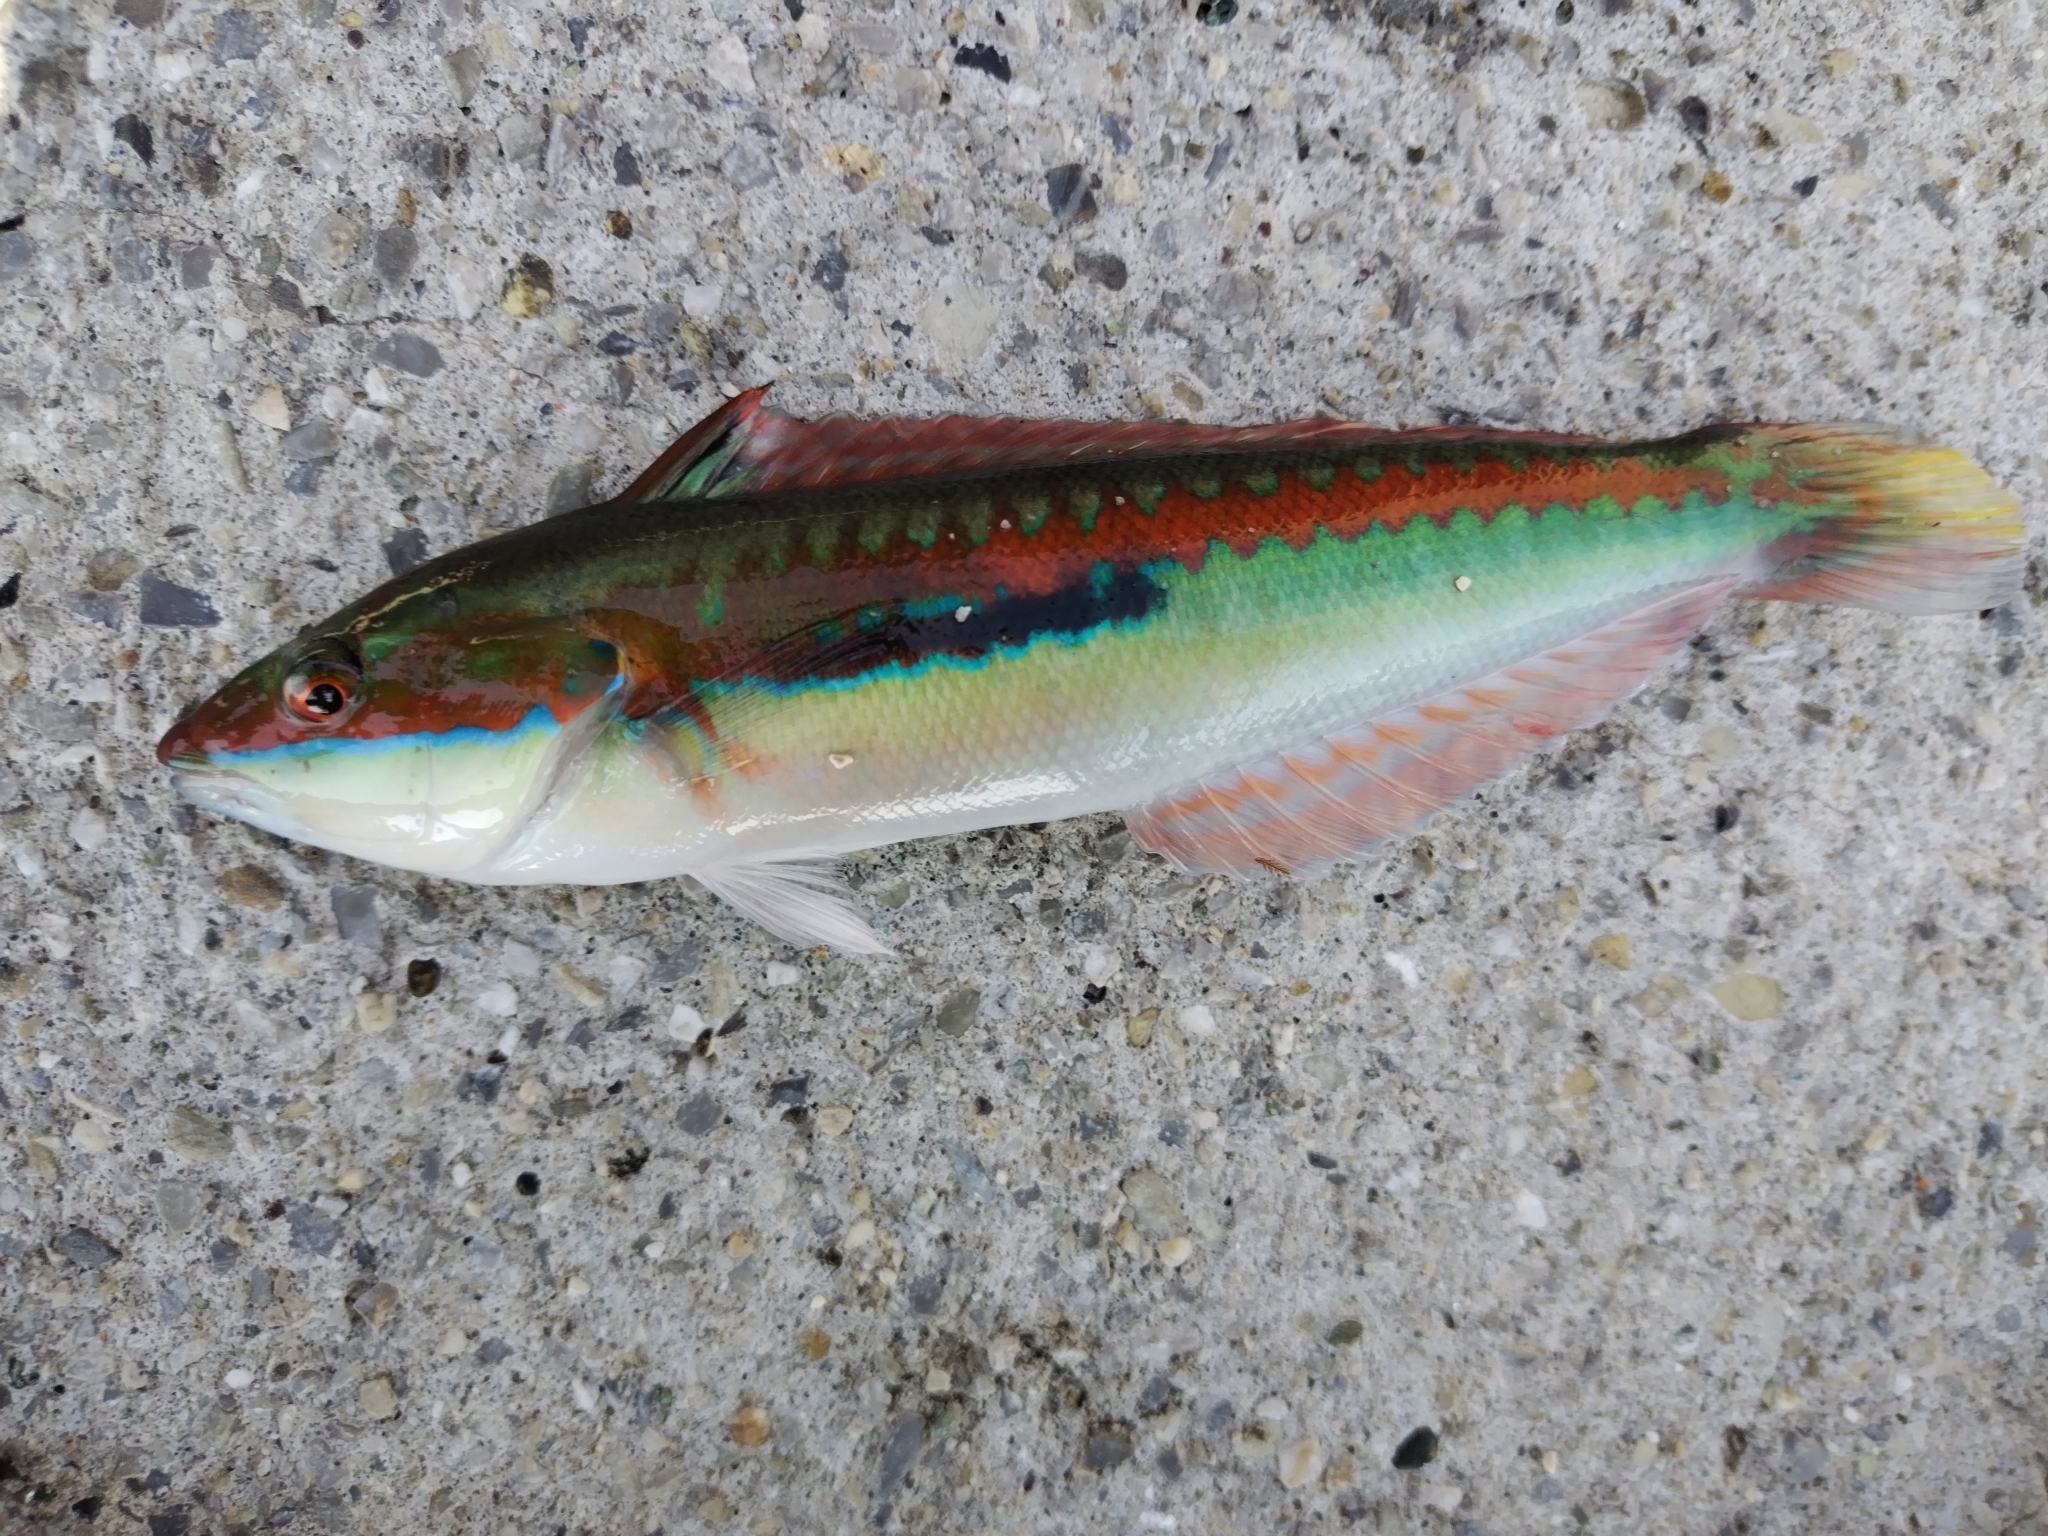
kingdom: Animalia
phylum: Chordata
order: Perciformes
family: Labridae
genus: Coris
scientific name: Coris julis
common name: Rainbow wrasse
